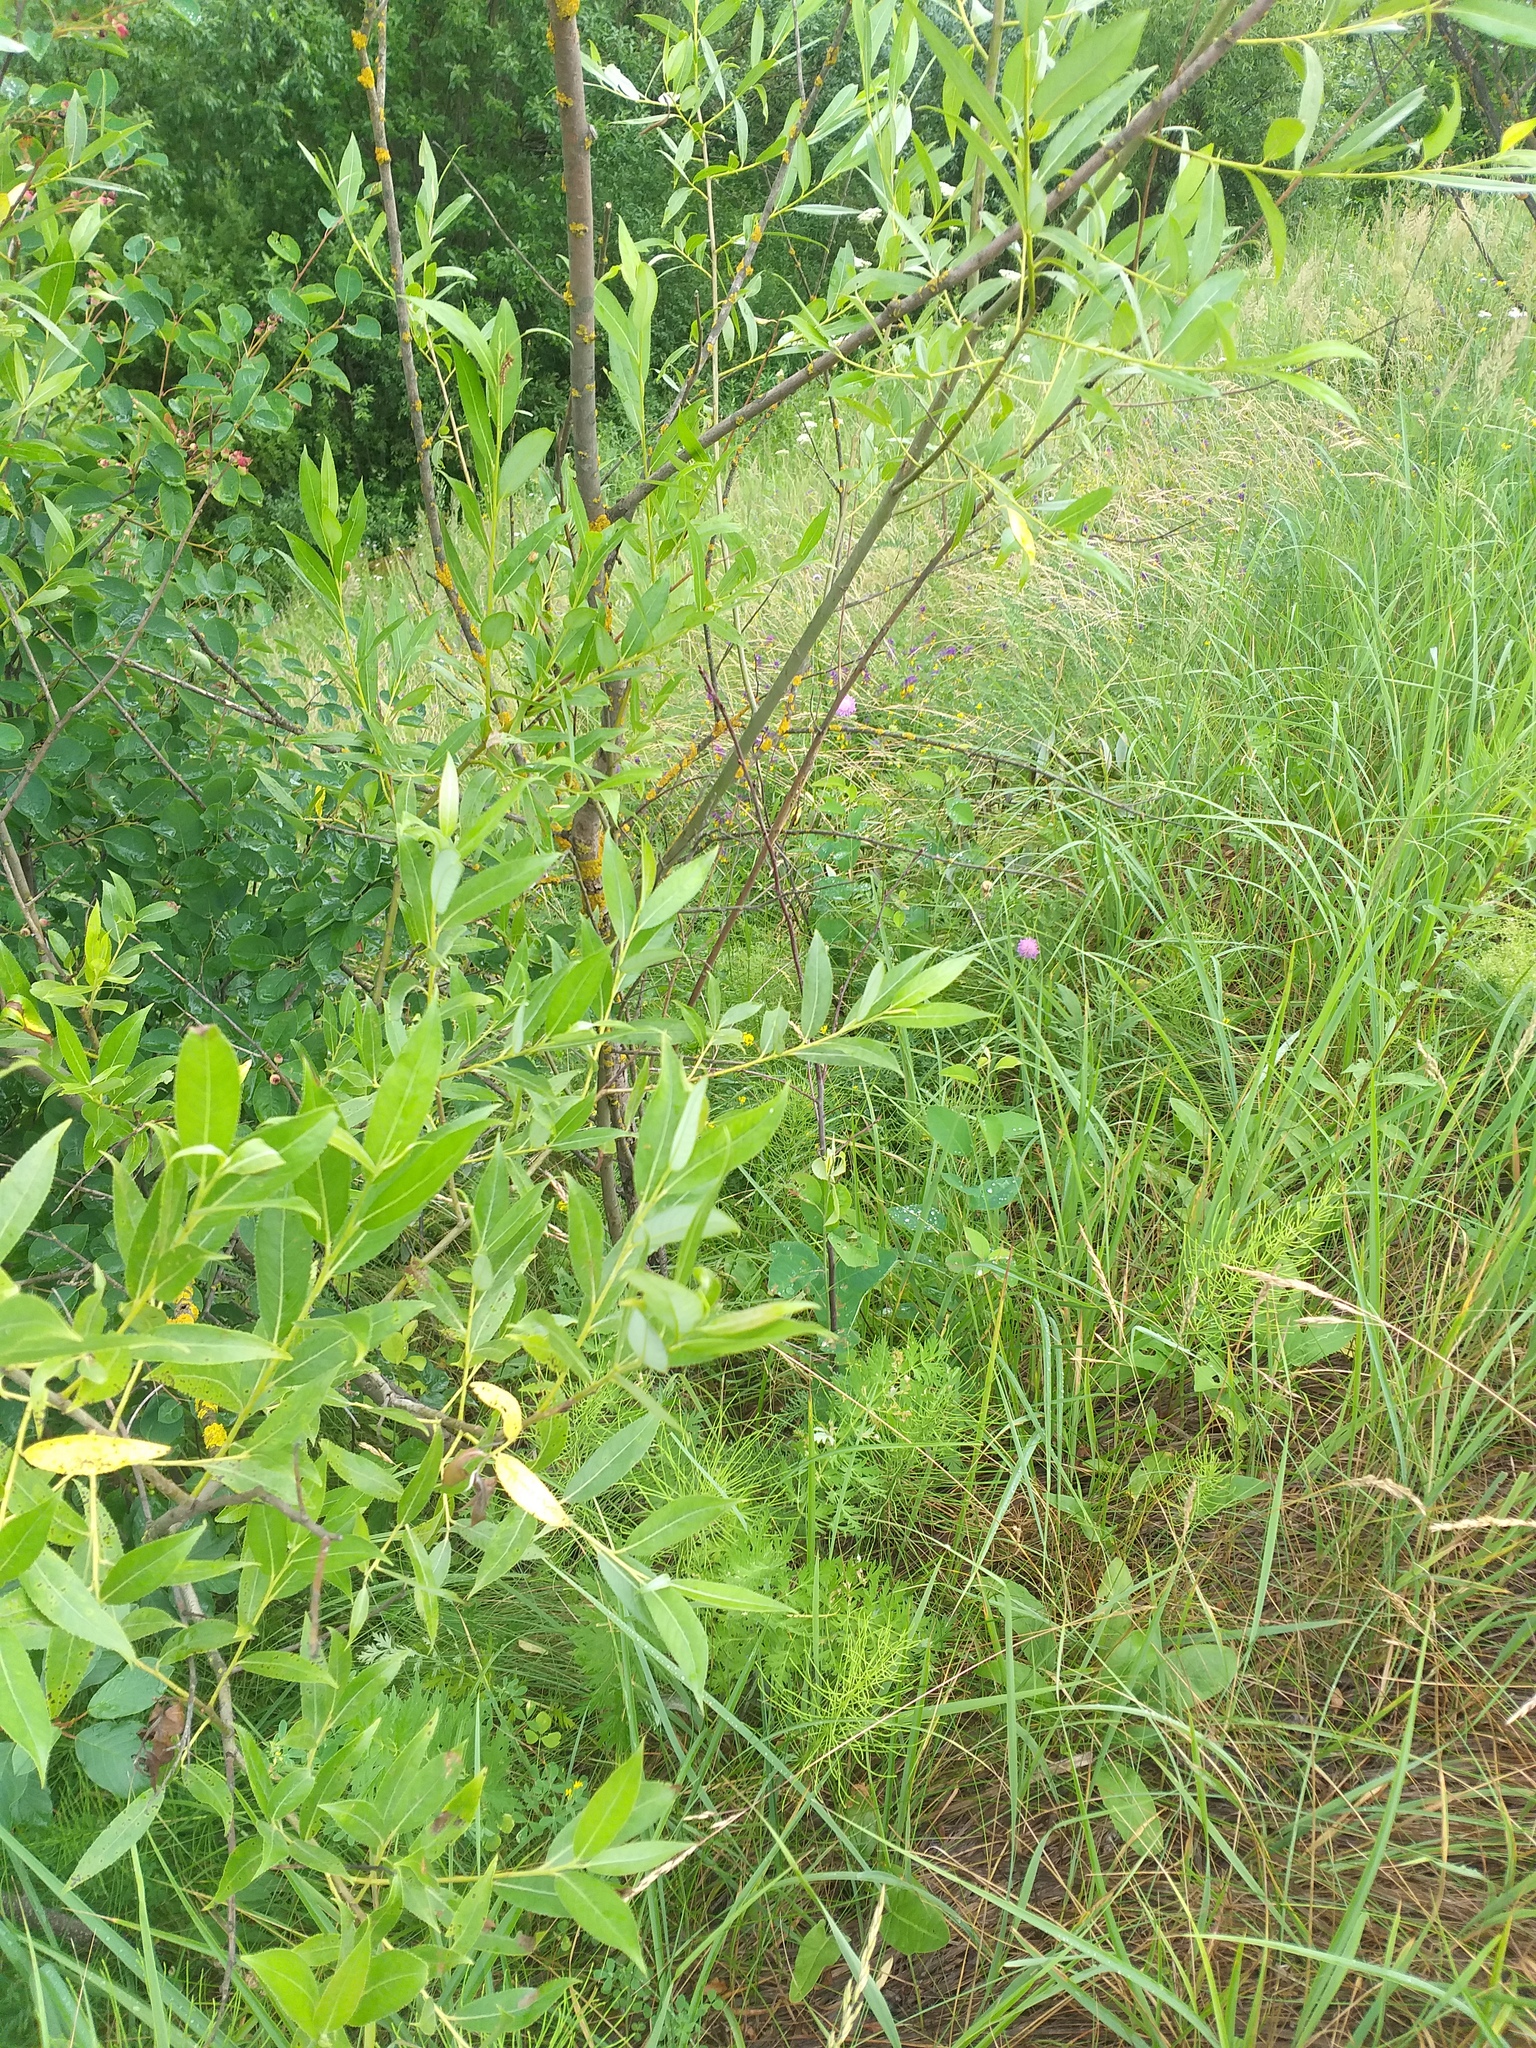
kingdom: Plantae
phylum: Tracheophyta
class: Magnoliopsida
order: Malpighiales
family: Salicaceae
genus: Salix
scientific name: Salix fragilis
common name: Crack willow
